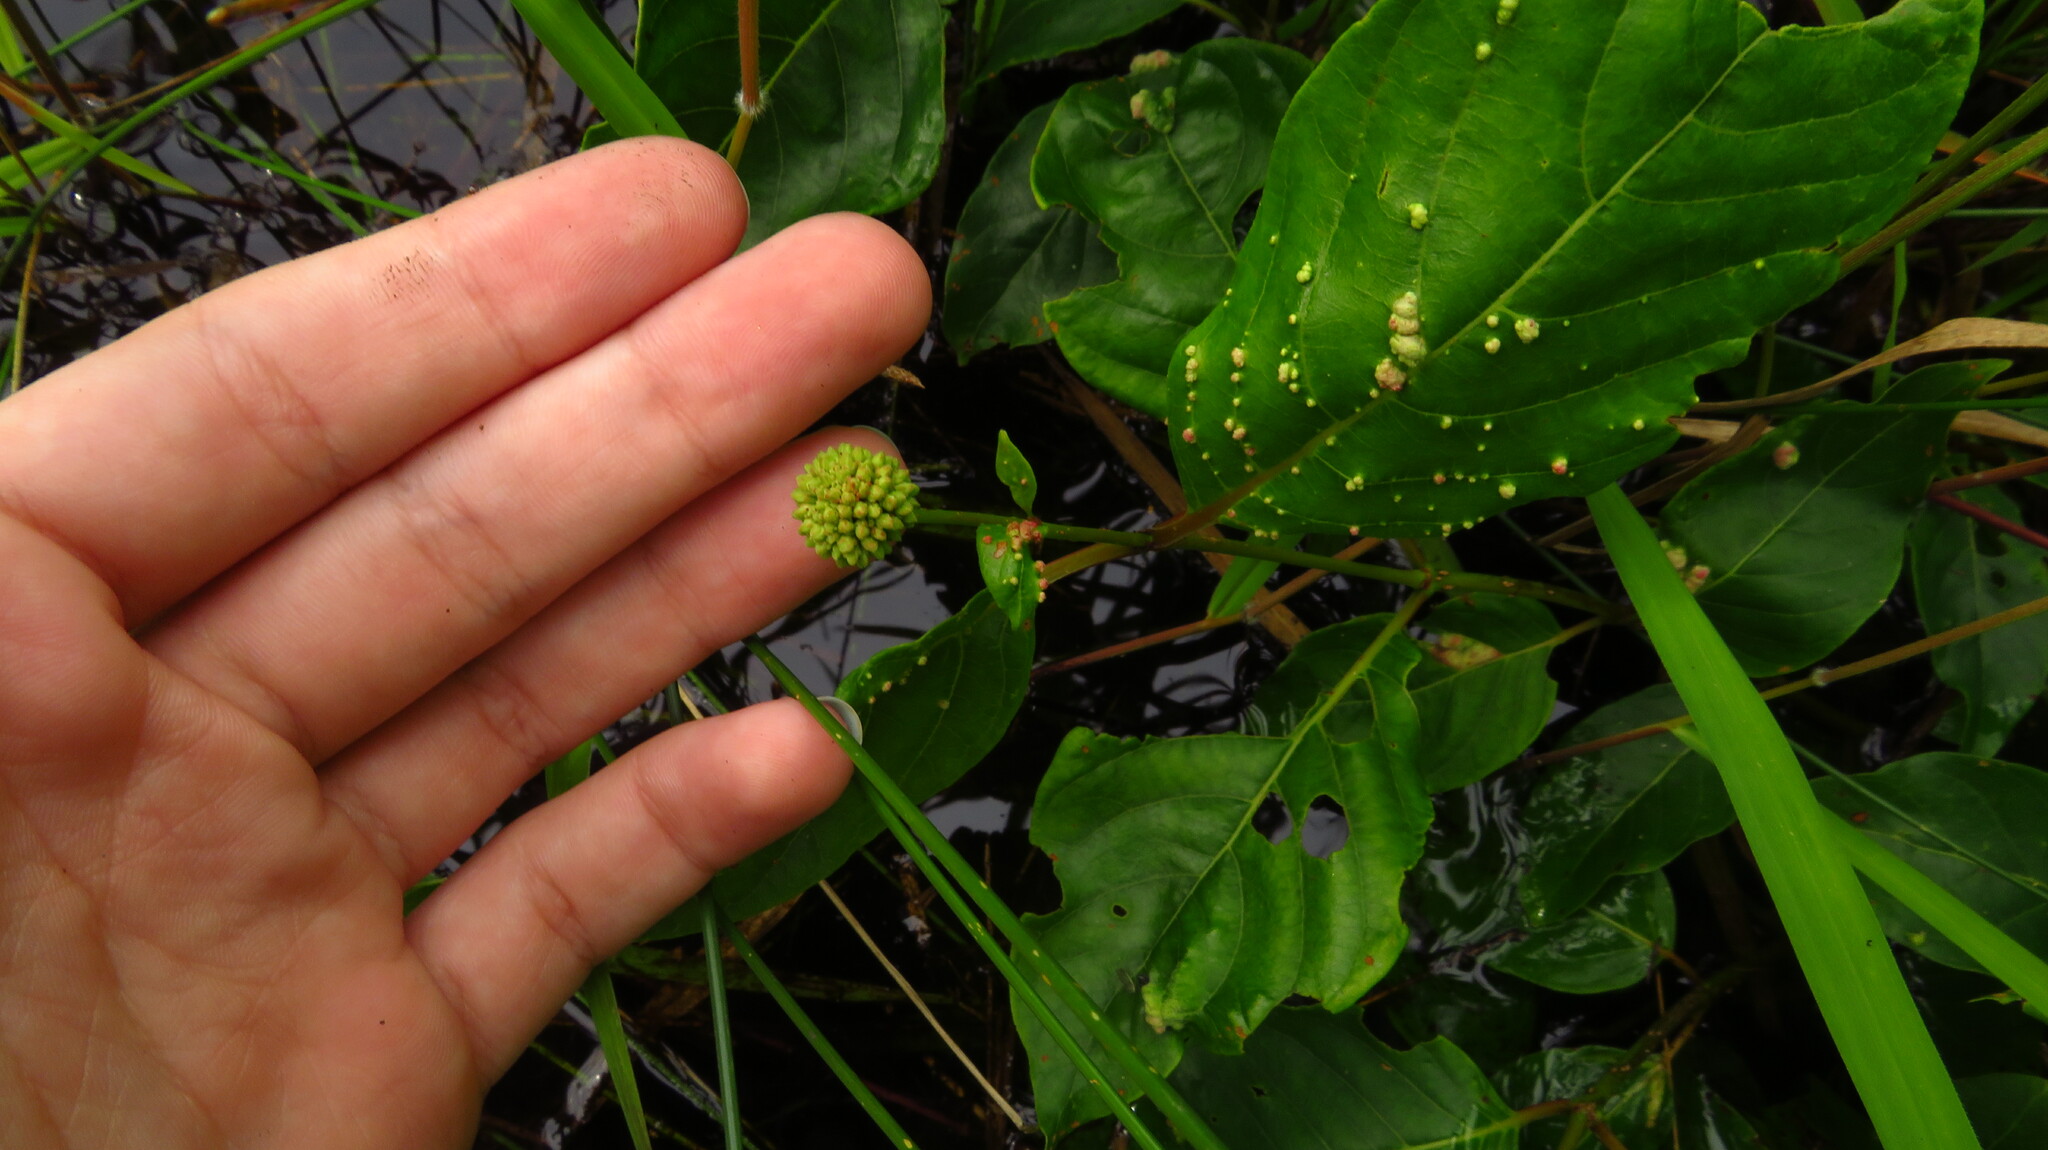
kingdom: Plantae
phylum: Tracheophyta
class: Magnoliopsida
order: Gentianales
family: Rubiaceae
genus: Cephalanthus
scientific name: Cephalanthus occidentalis
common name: Button-willow
